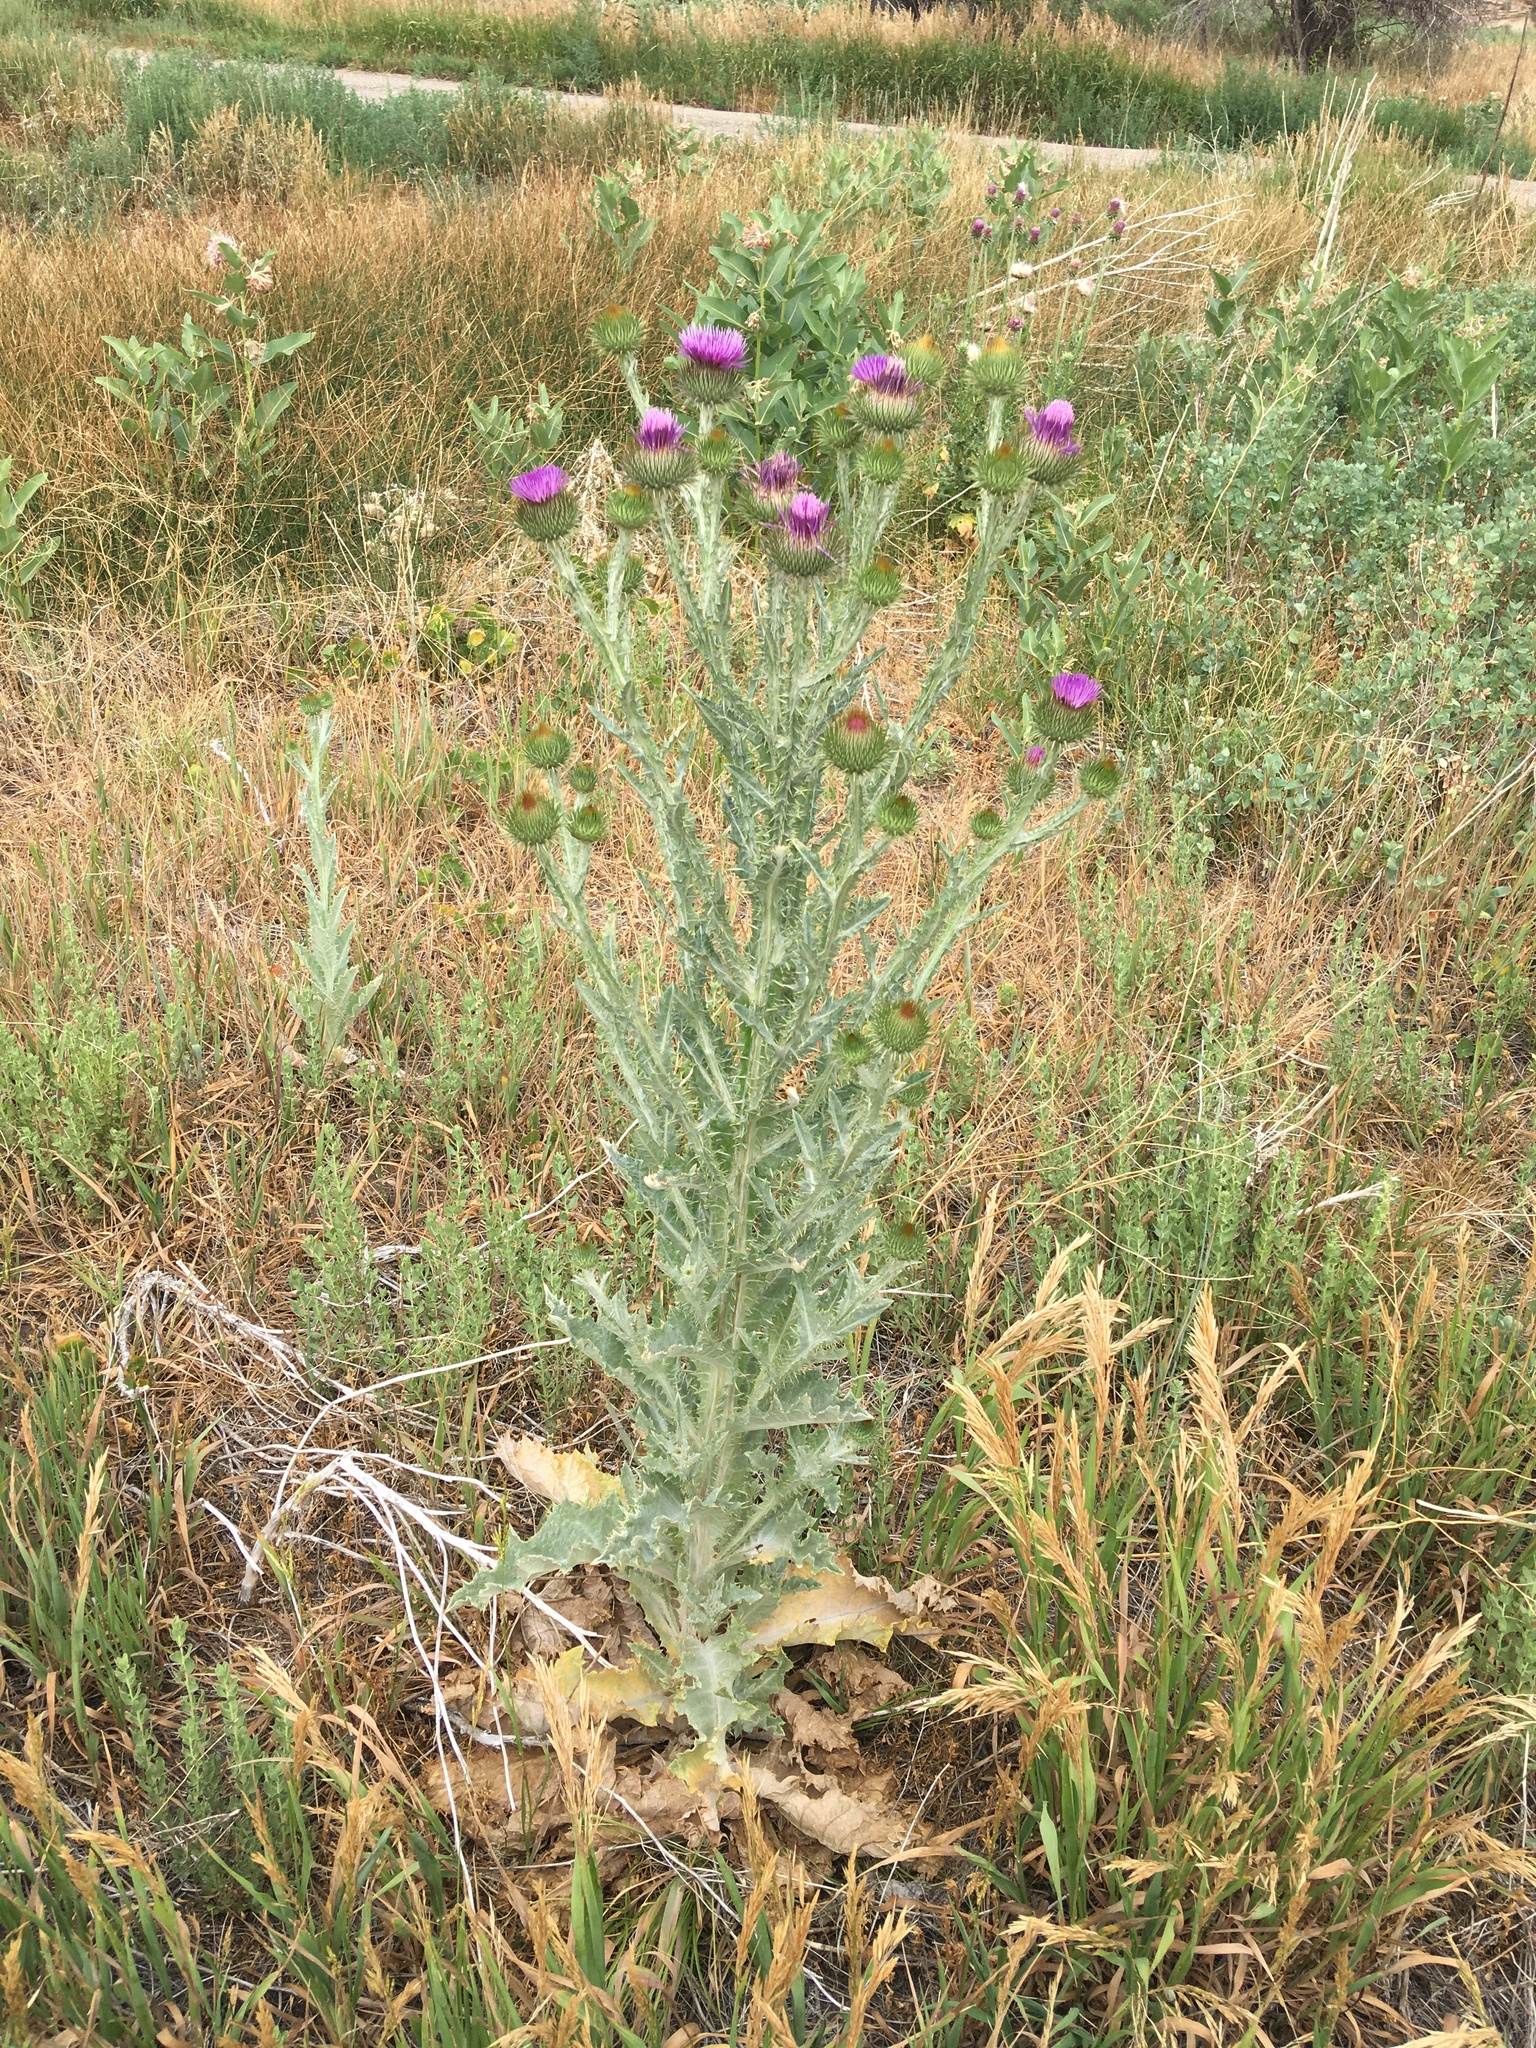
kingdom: Plantae
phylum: Tracheophyta
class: Magnoliopsida
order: Asterales
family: Asteraceae
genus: Onopordum
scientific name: Onopordum acanthium
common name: Scotch thistle
